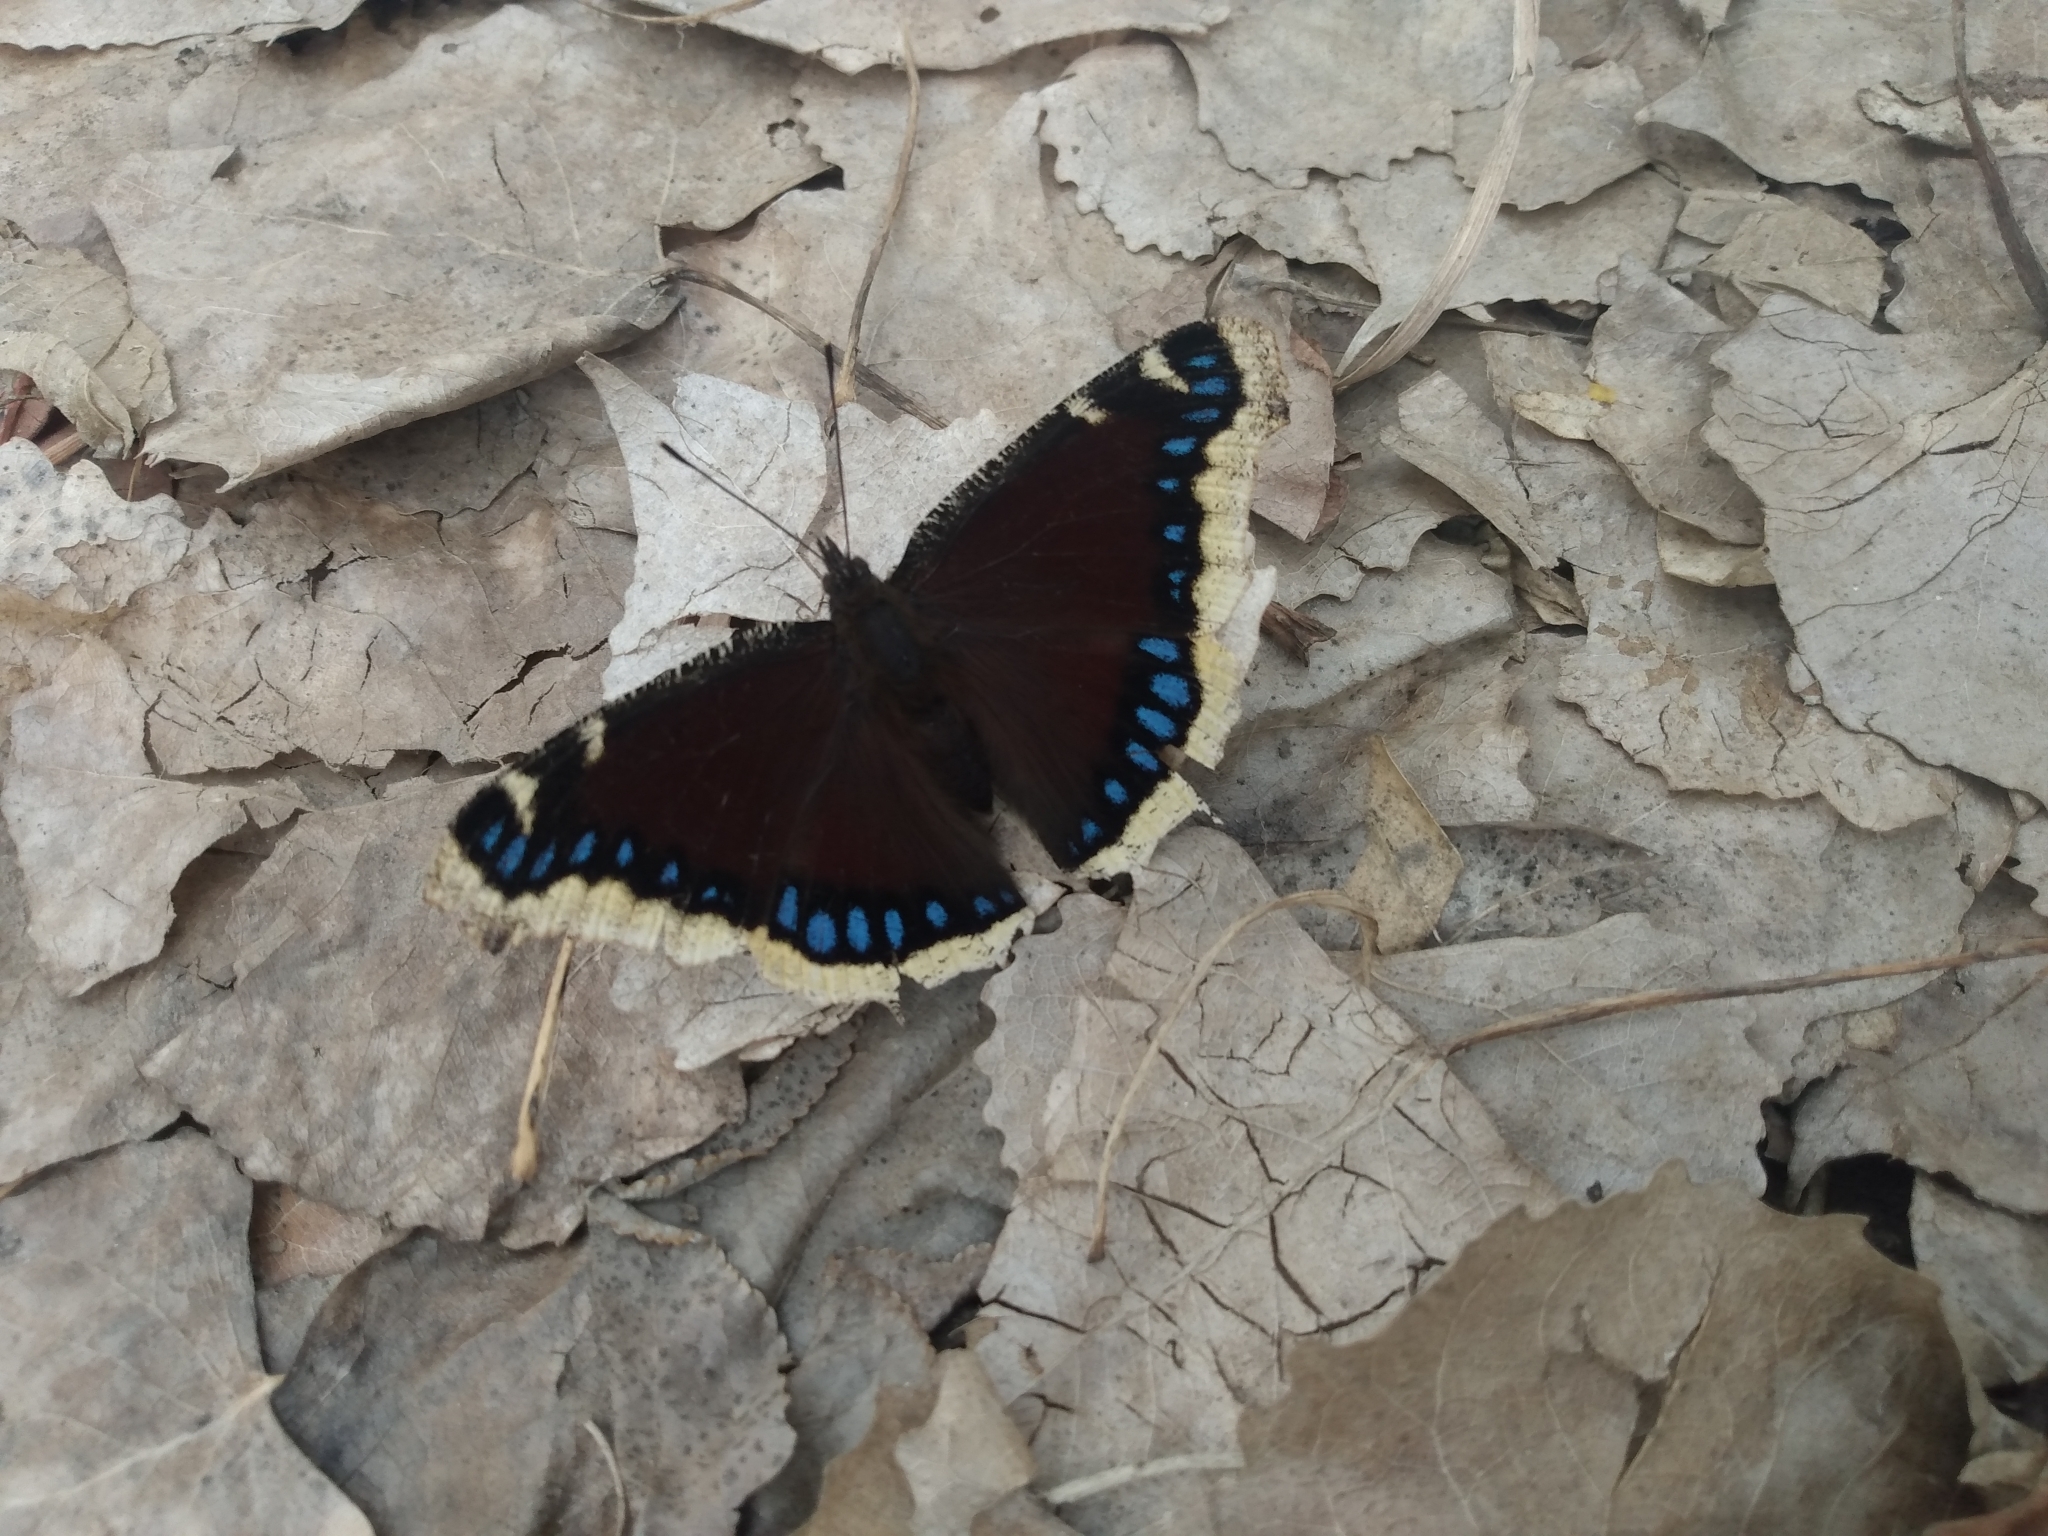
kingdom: Animalia
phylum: Arthropoda
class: Insecta
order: Lepidoptera
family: Nymphalidae
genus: Nymphalis
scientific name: Nymphalis antiopa
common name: Camberwell beauty
